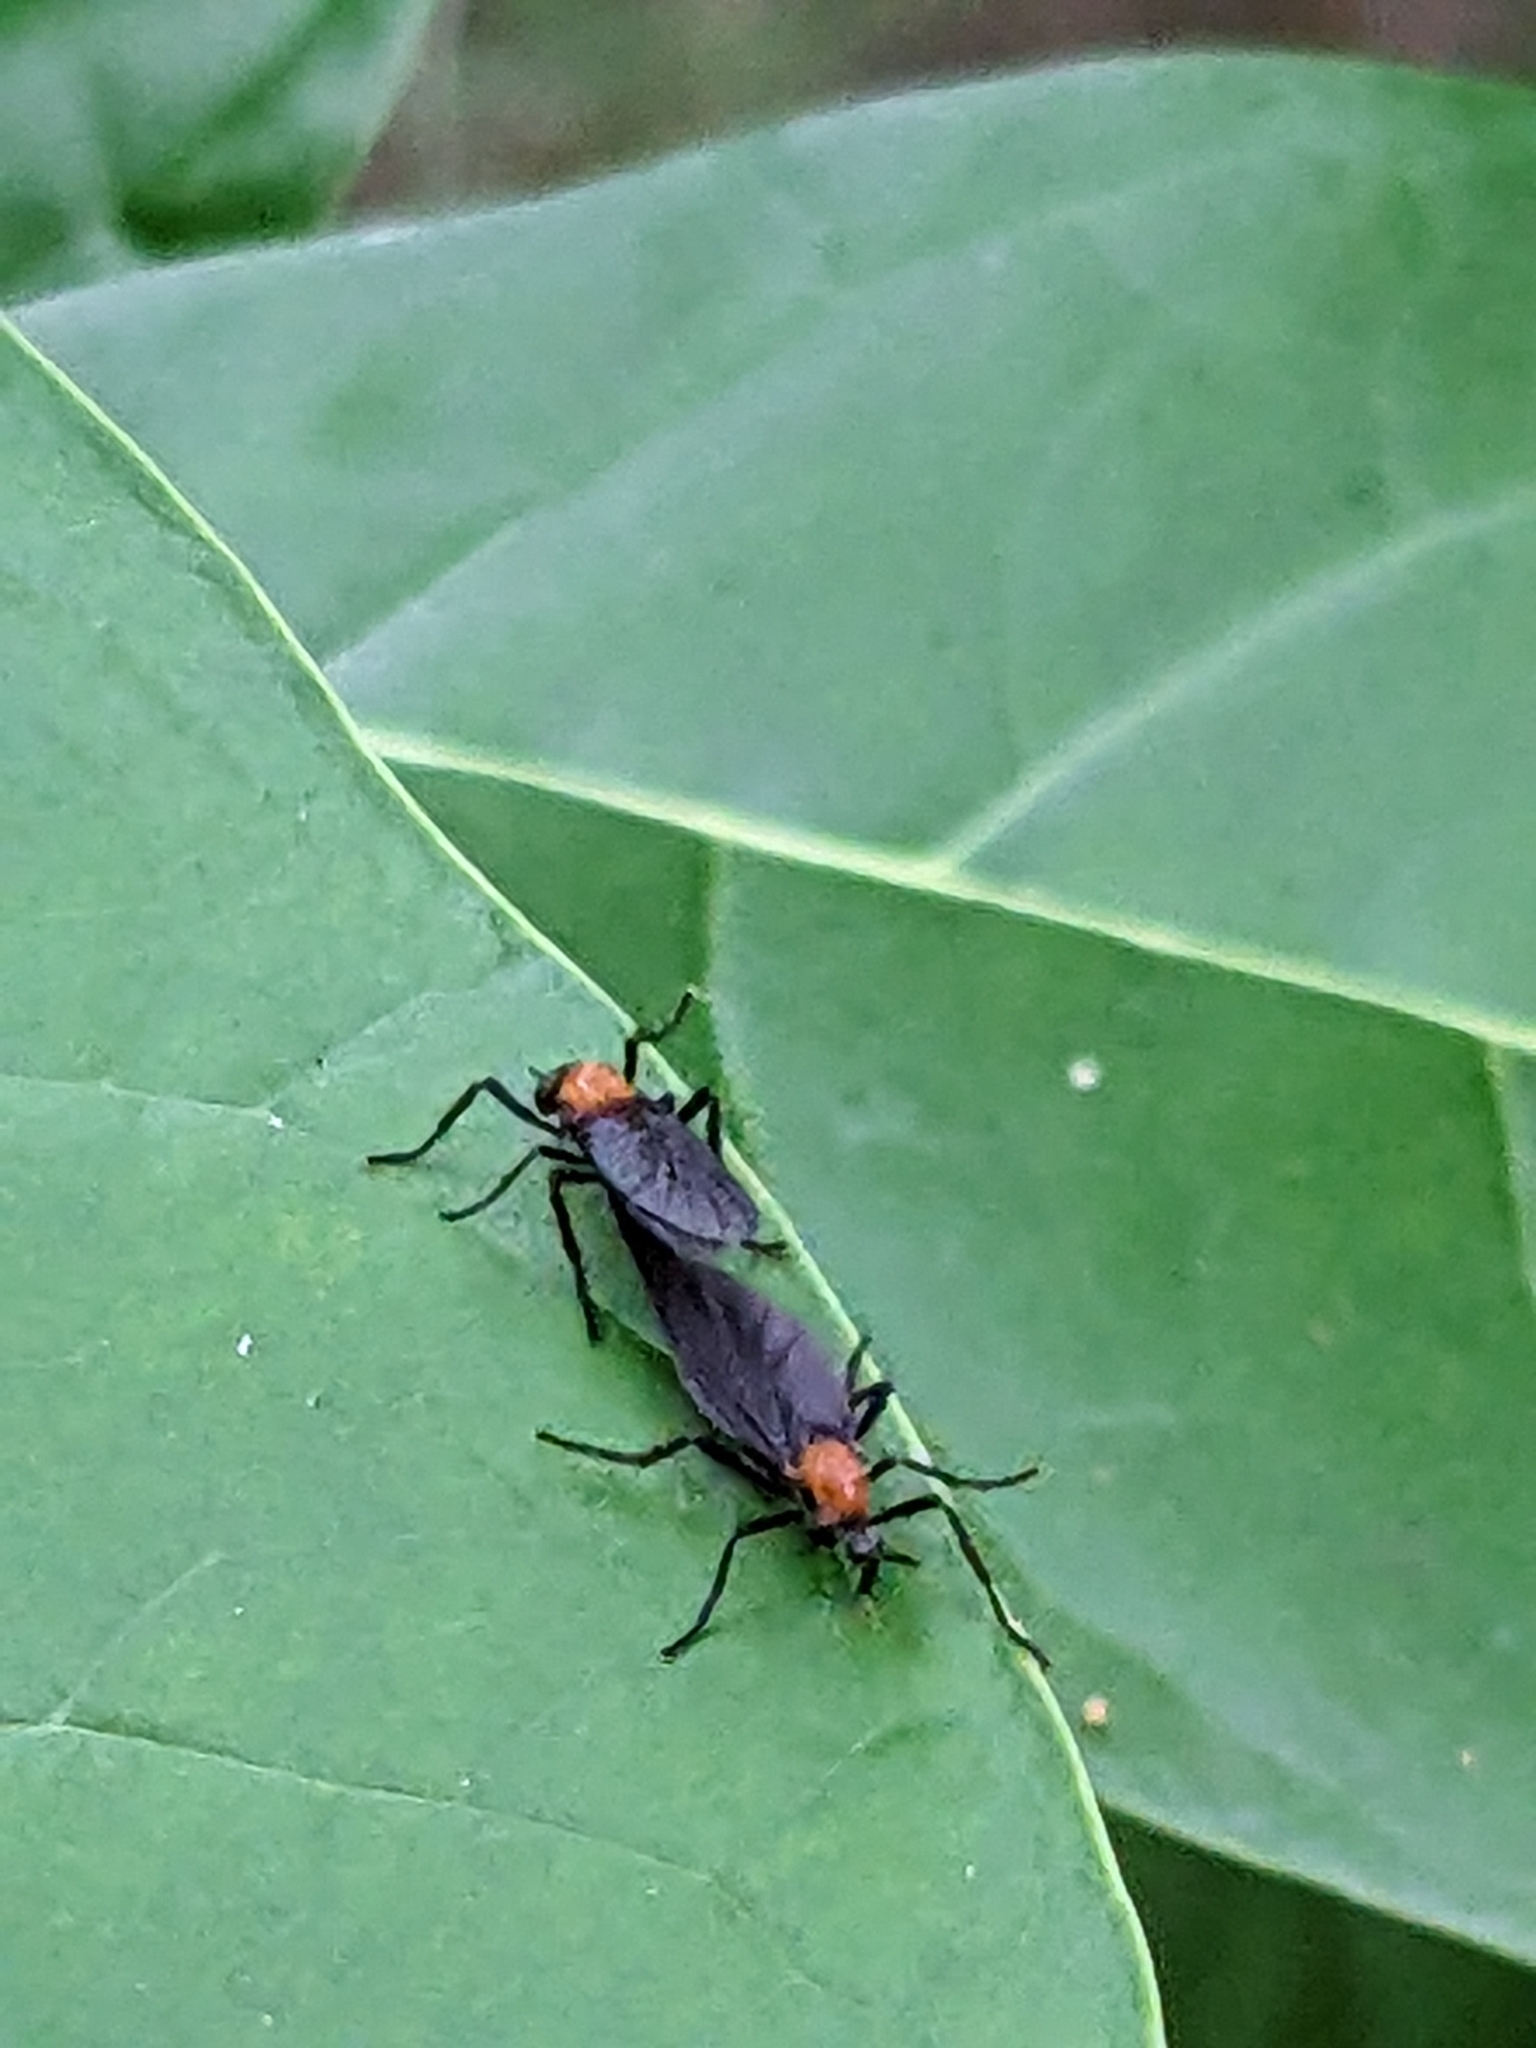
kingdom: Animalia
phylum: Arthropoda
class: Insecta
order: Diptera
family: Bibionidae
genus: Plecia
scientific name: Plecia nearctica
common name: March fly
